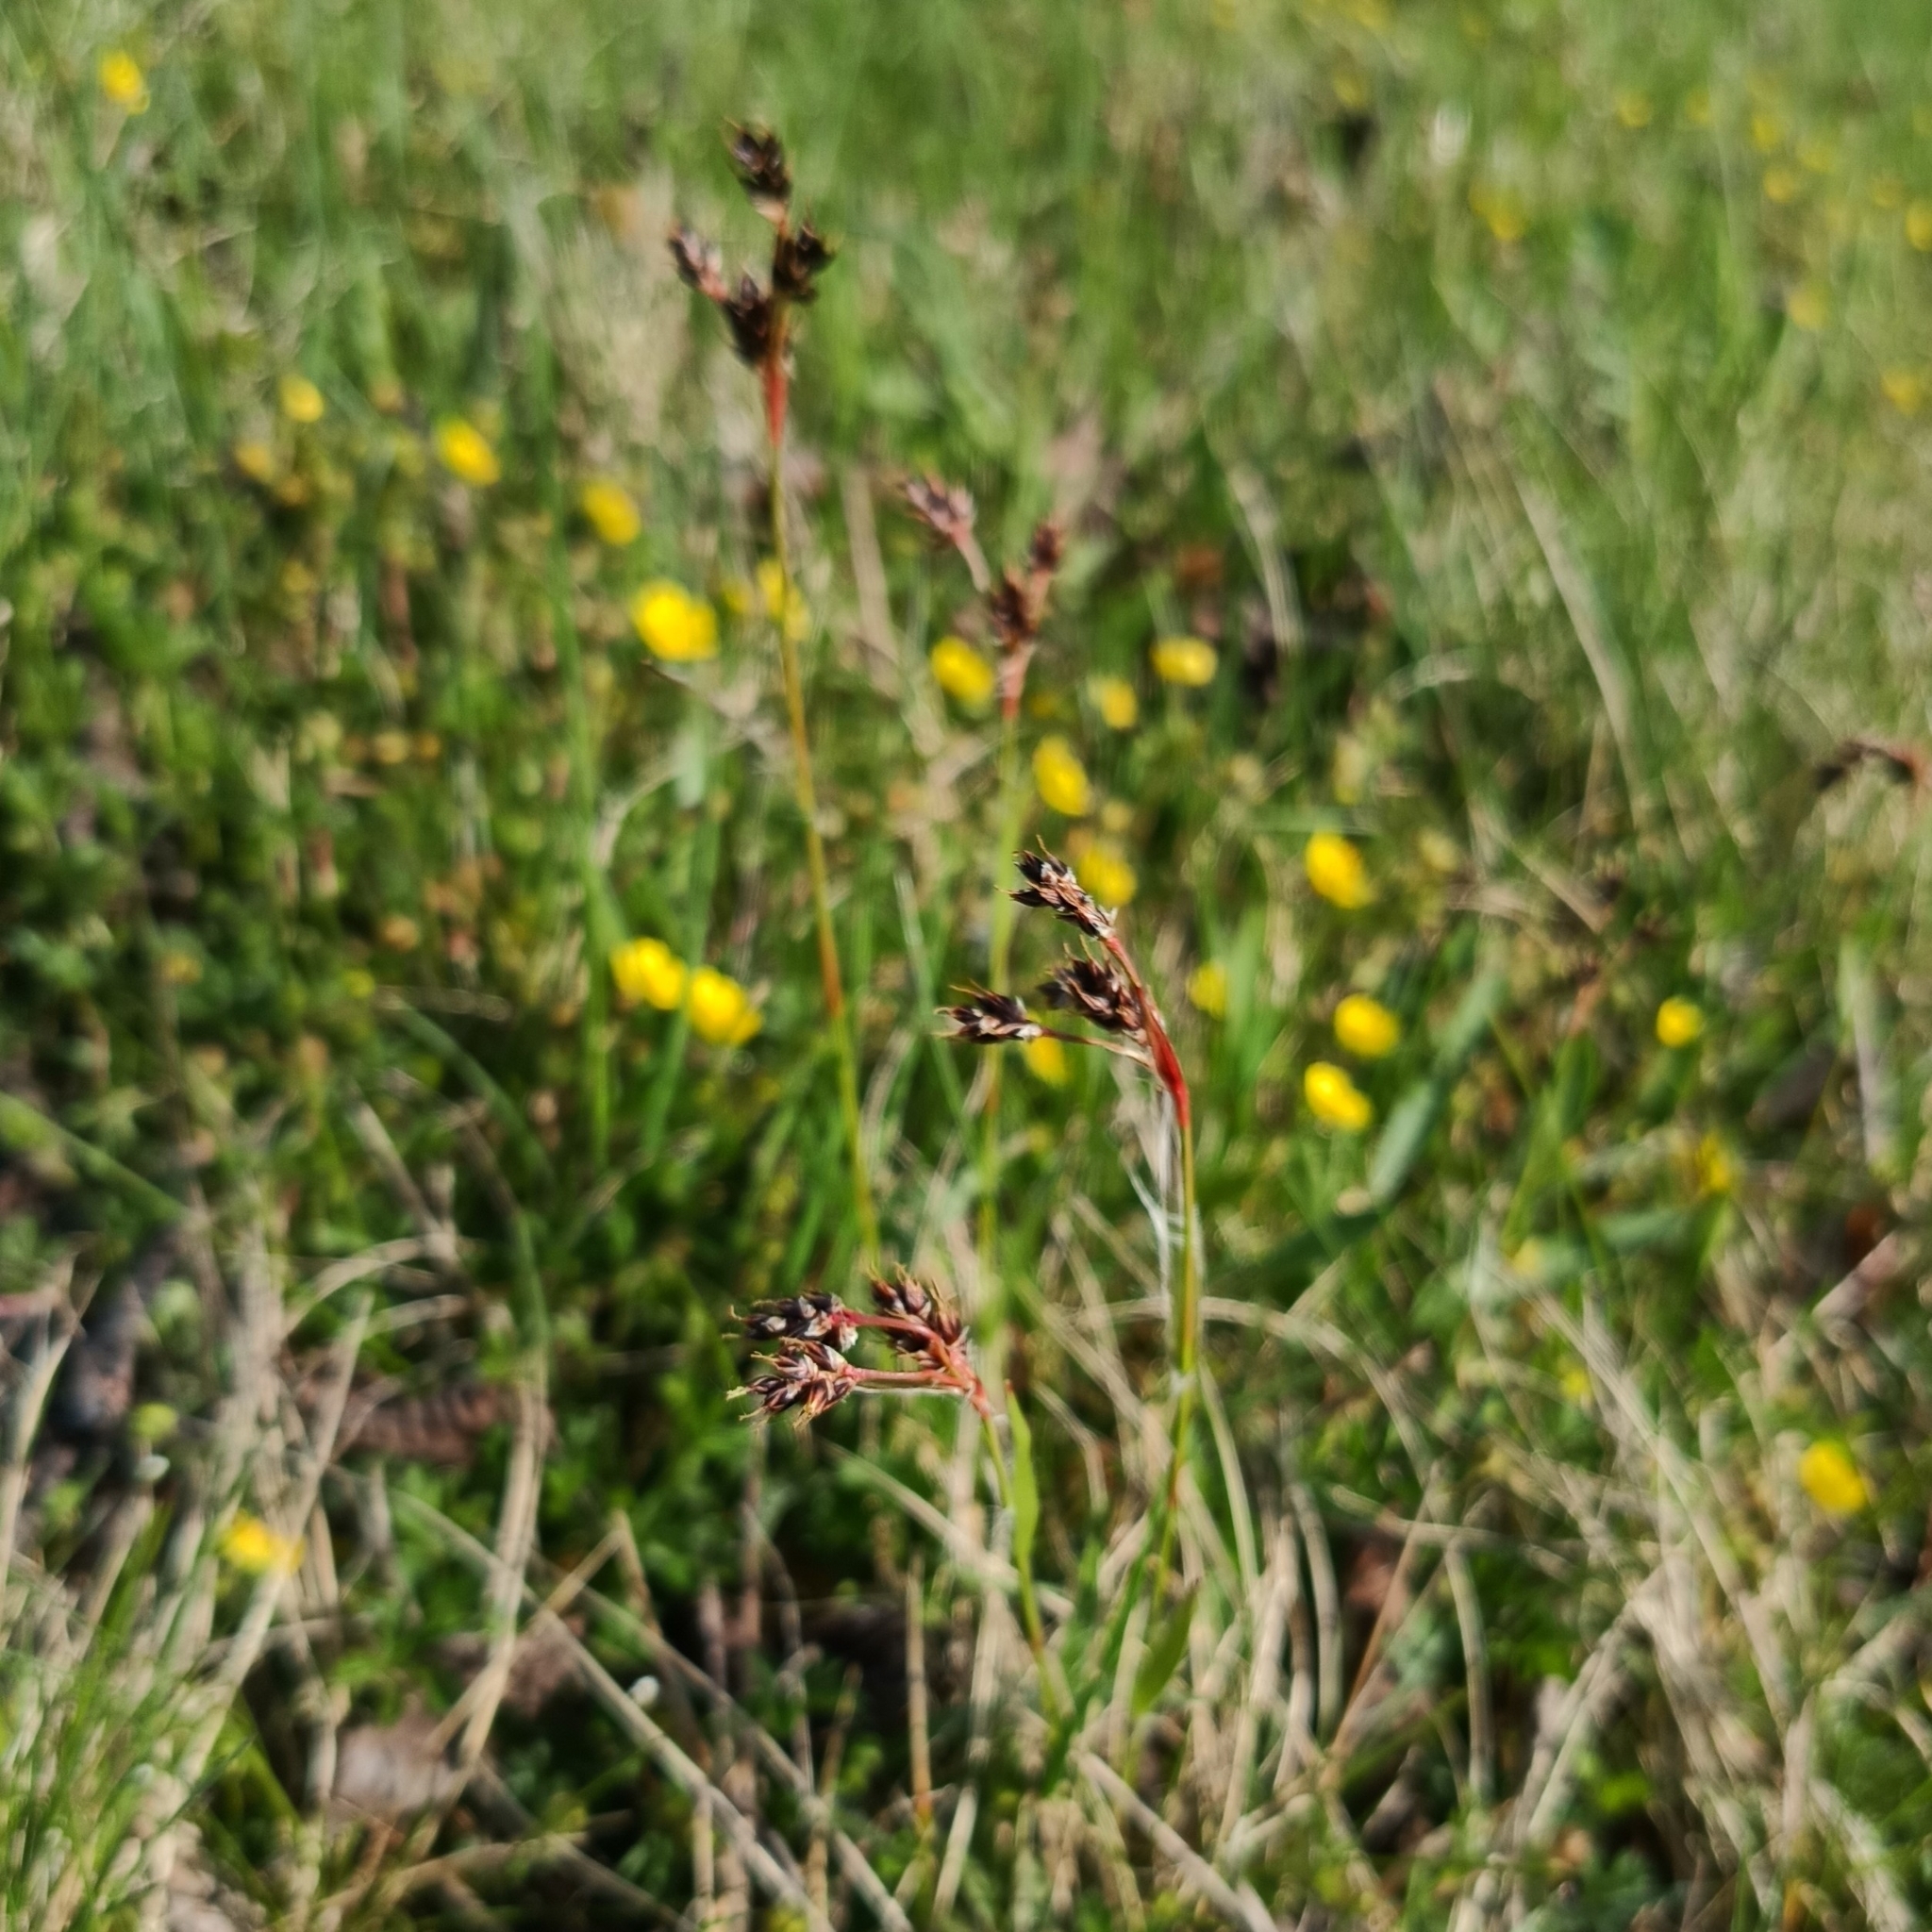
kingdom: Plantae
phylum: Tracheophyta
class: Liliopsida
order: Poales
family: Juncaceae
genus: Luzula
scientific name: Luzula campestris
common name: Field wood-rush
